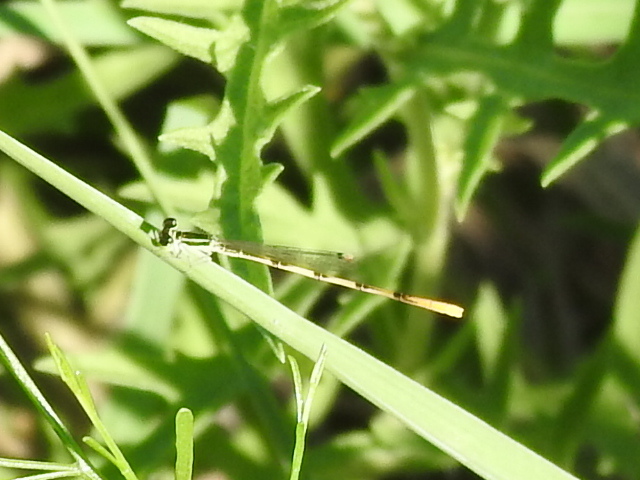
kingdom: Animalia
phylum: Arthropoda
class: Insecta
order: Odonata
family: Coenagrionidae
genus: Ischnura
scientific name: Ischnura hastata
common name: Citrine forktail
